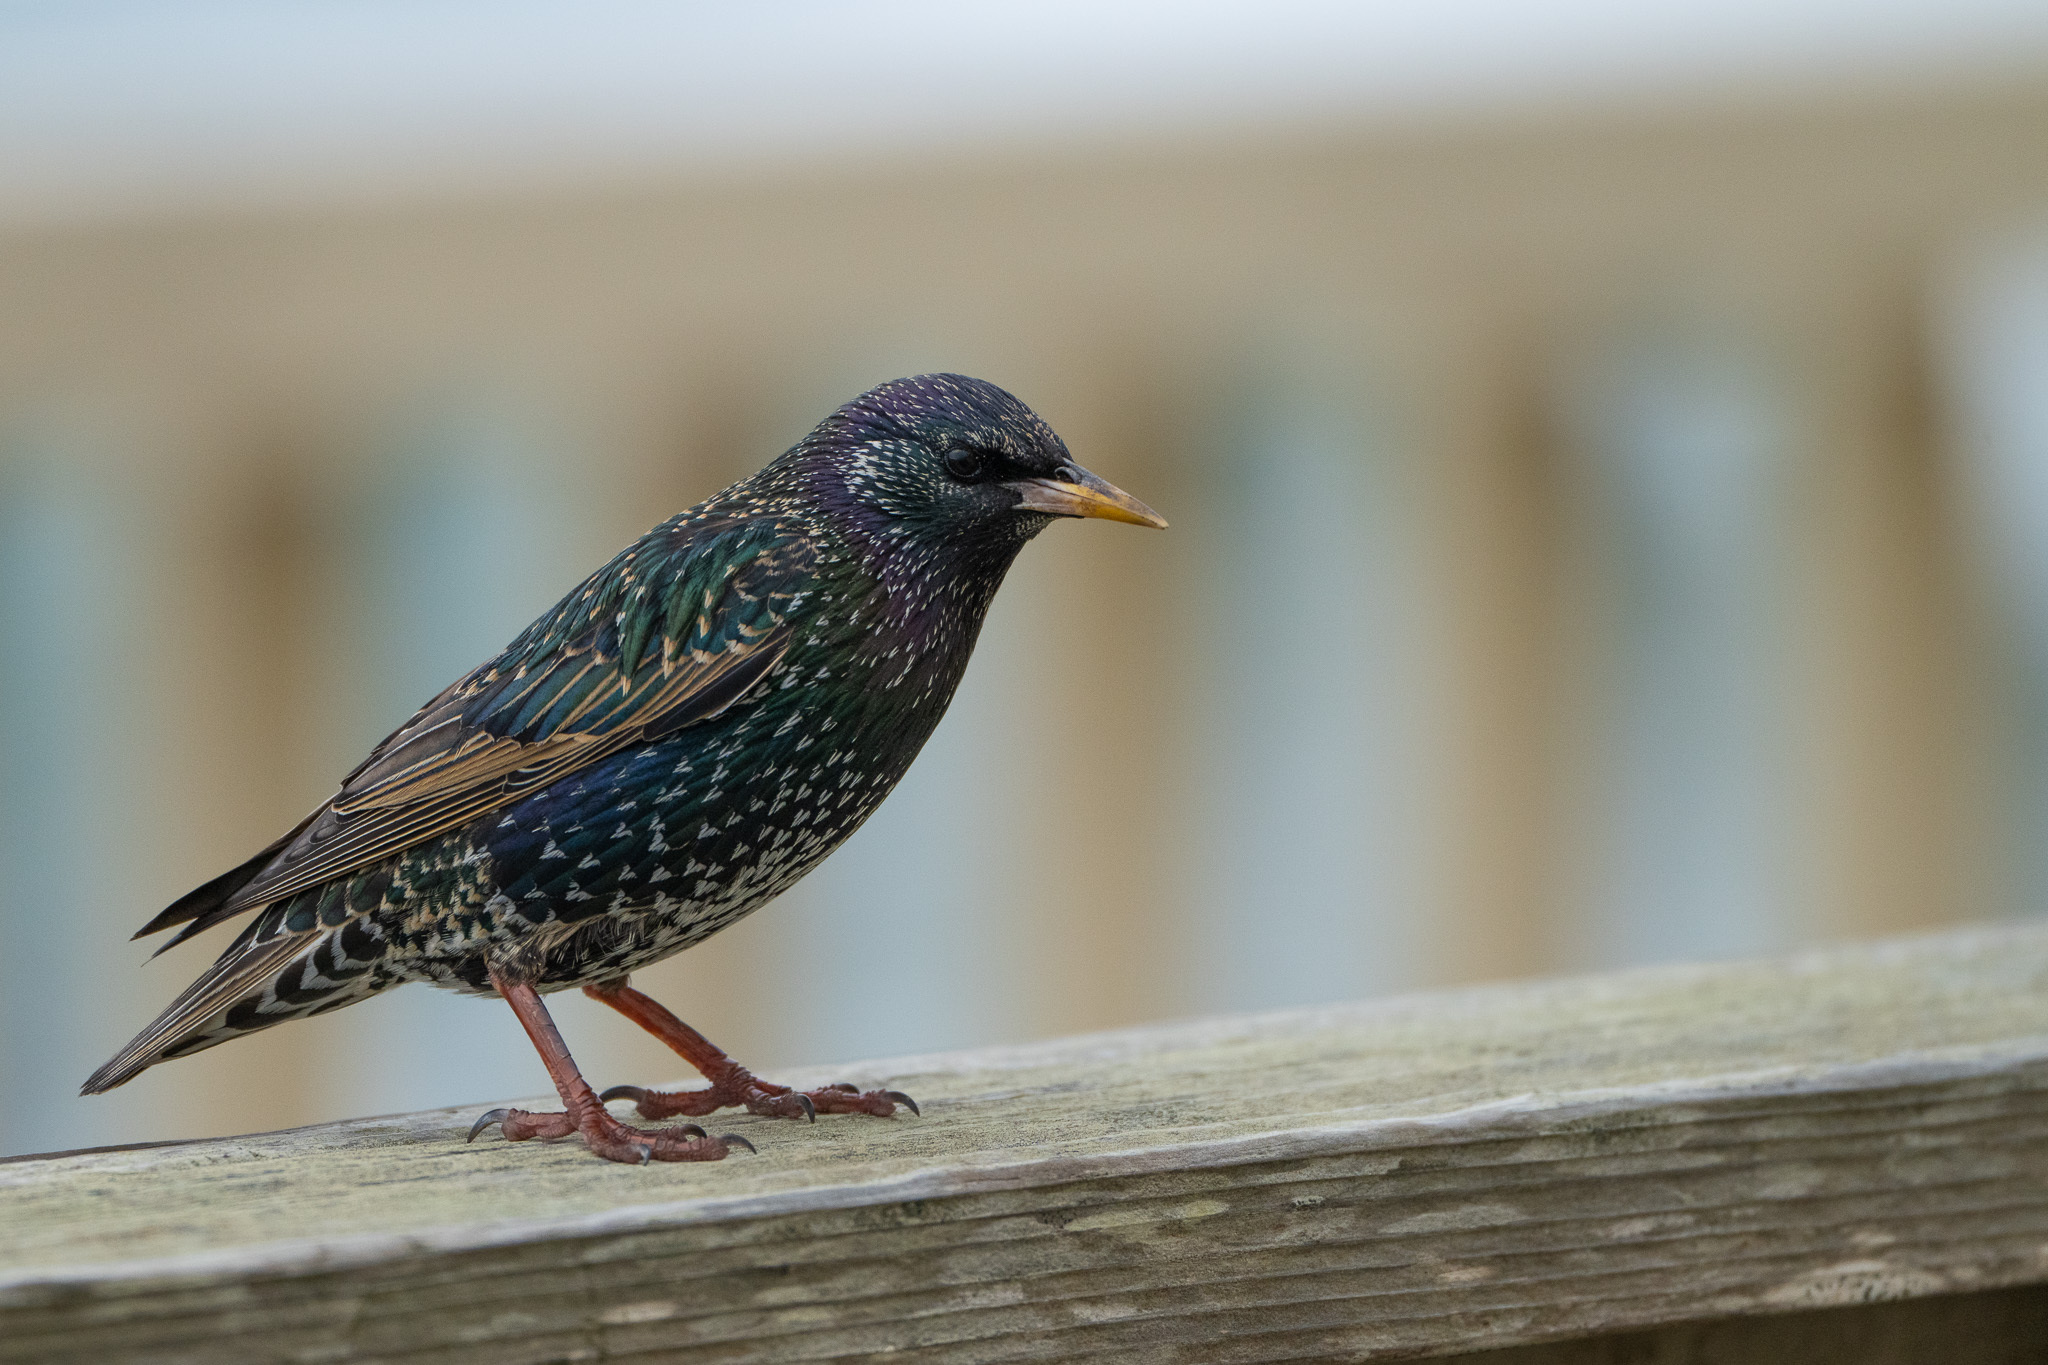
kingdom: Animalia
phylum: Chordata
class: Aves
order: Passeriformes
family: Sturnidae
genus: Sturnus
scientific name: Sturnus vulgaris
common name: Common starling
